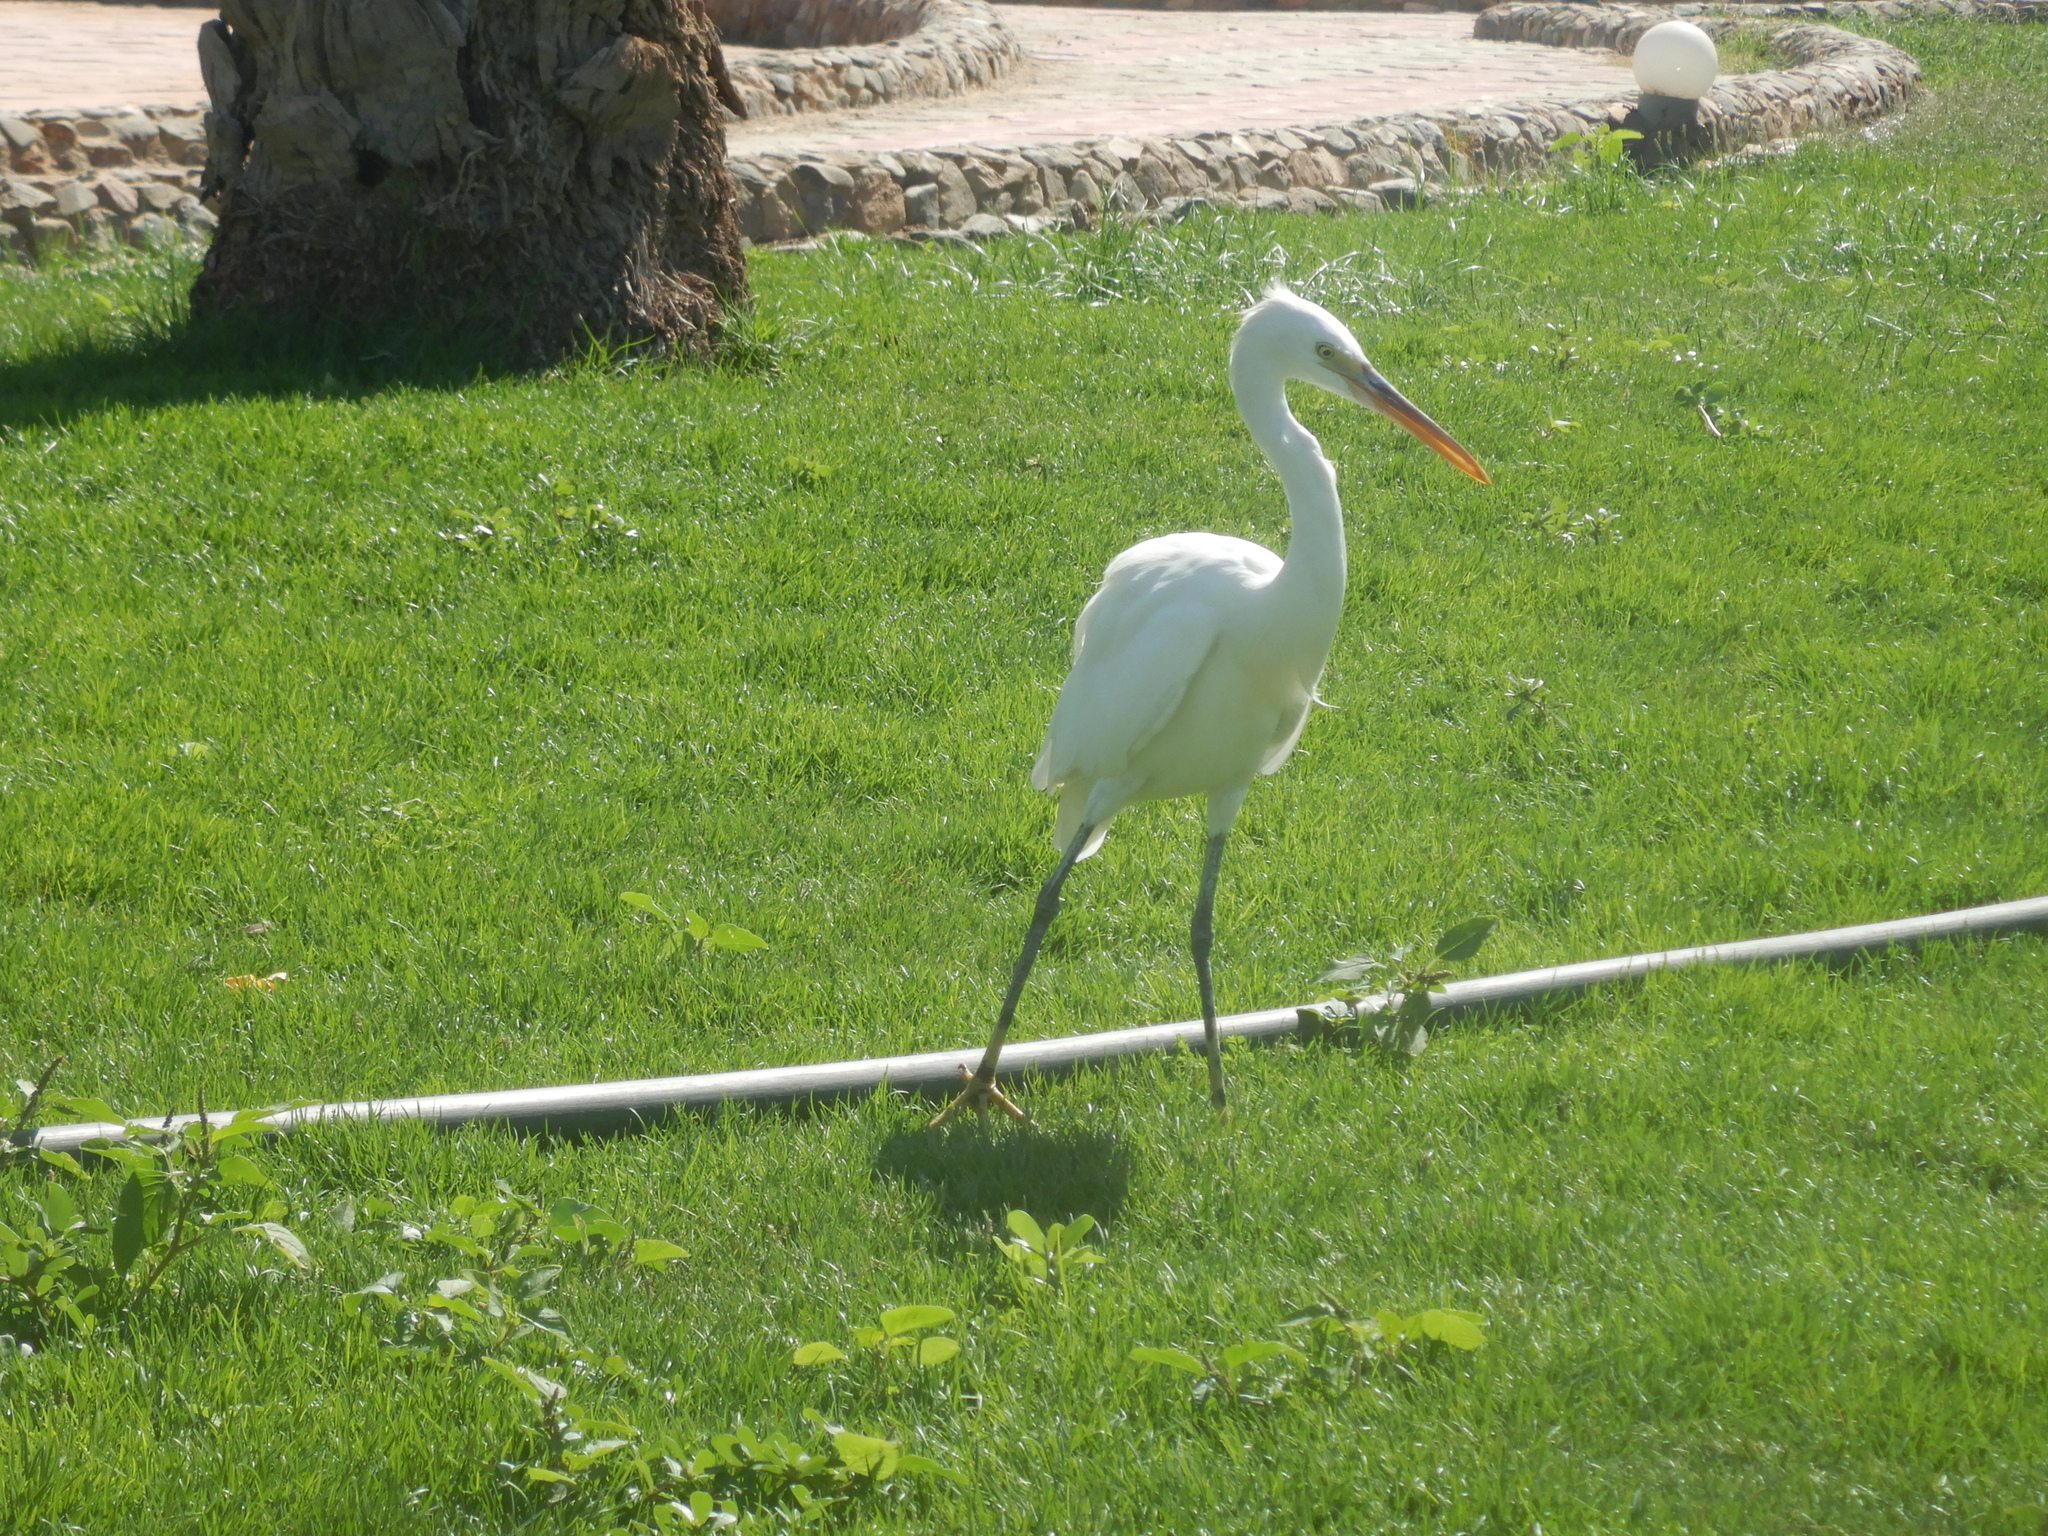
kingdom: Animalia
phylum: Chordata
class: Aves
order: Pelecaniformes
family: Ardeidae
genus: Egretta
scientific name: Egretta gularis
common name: Western reef-heron
